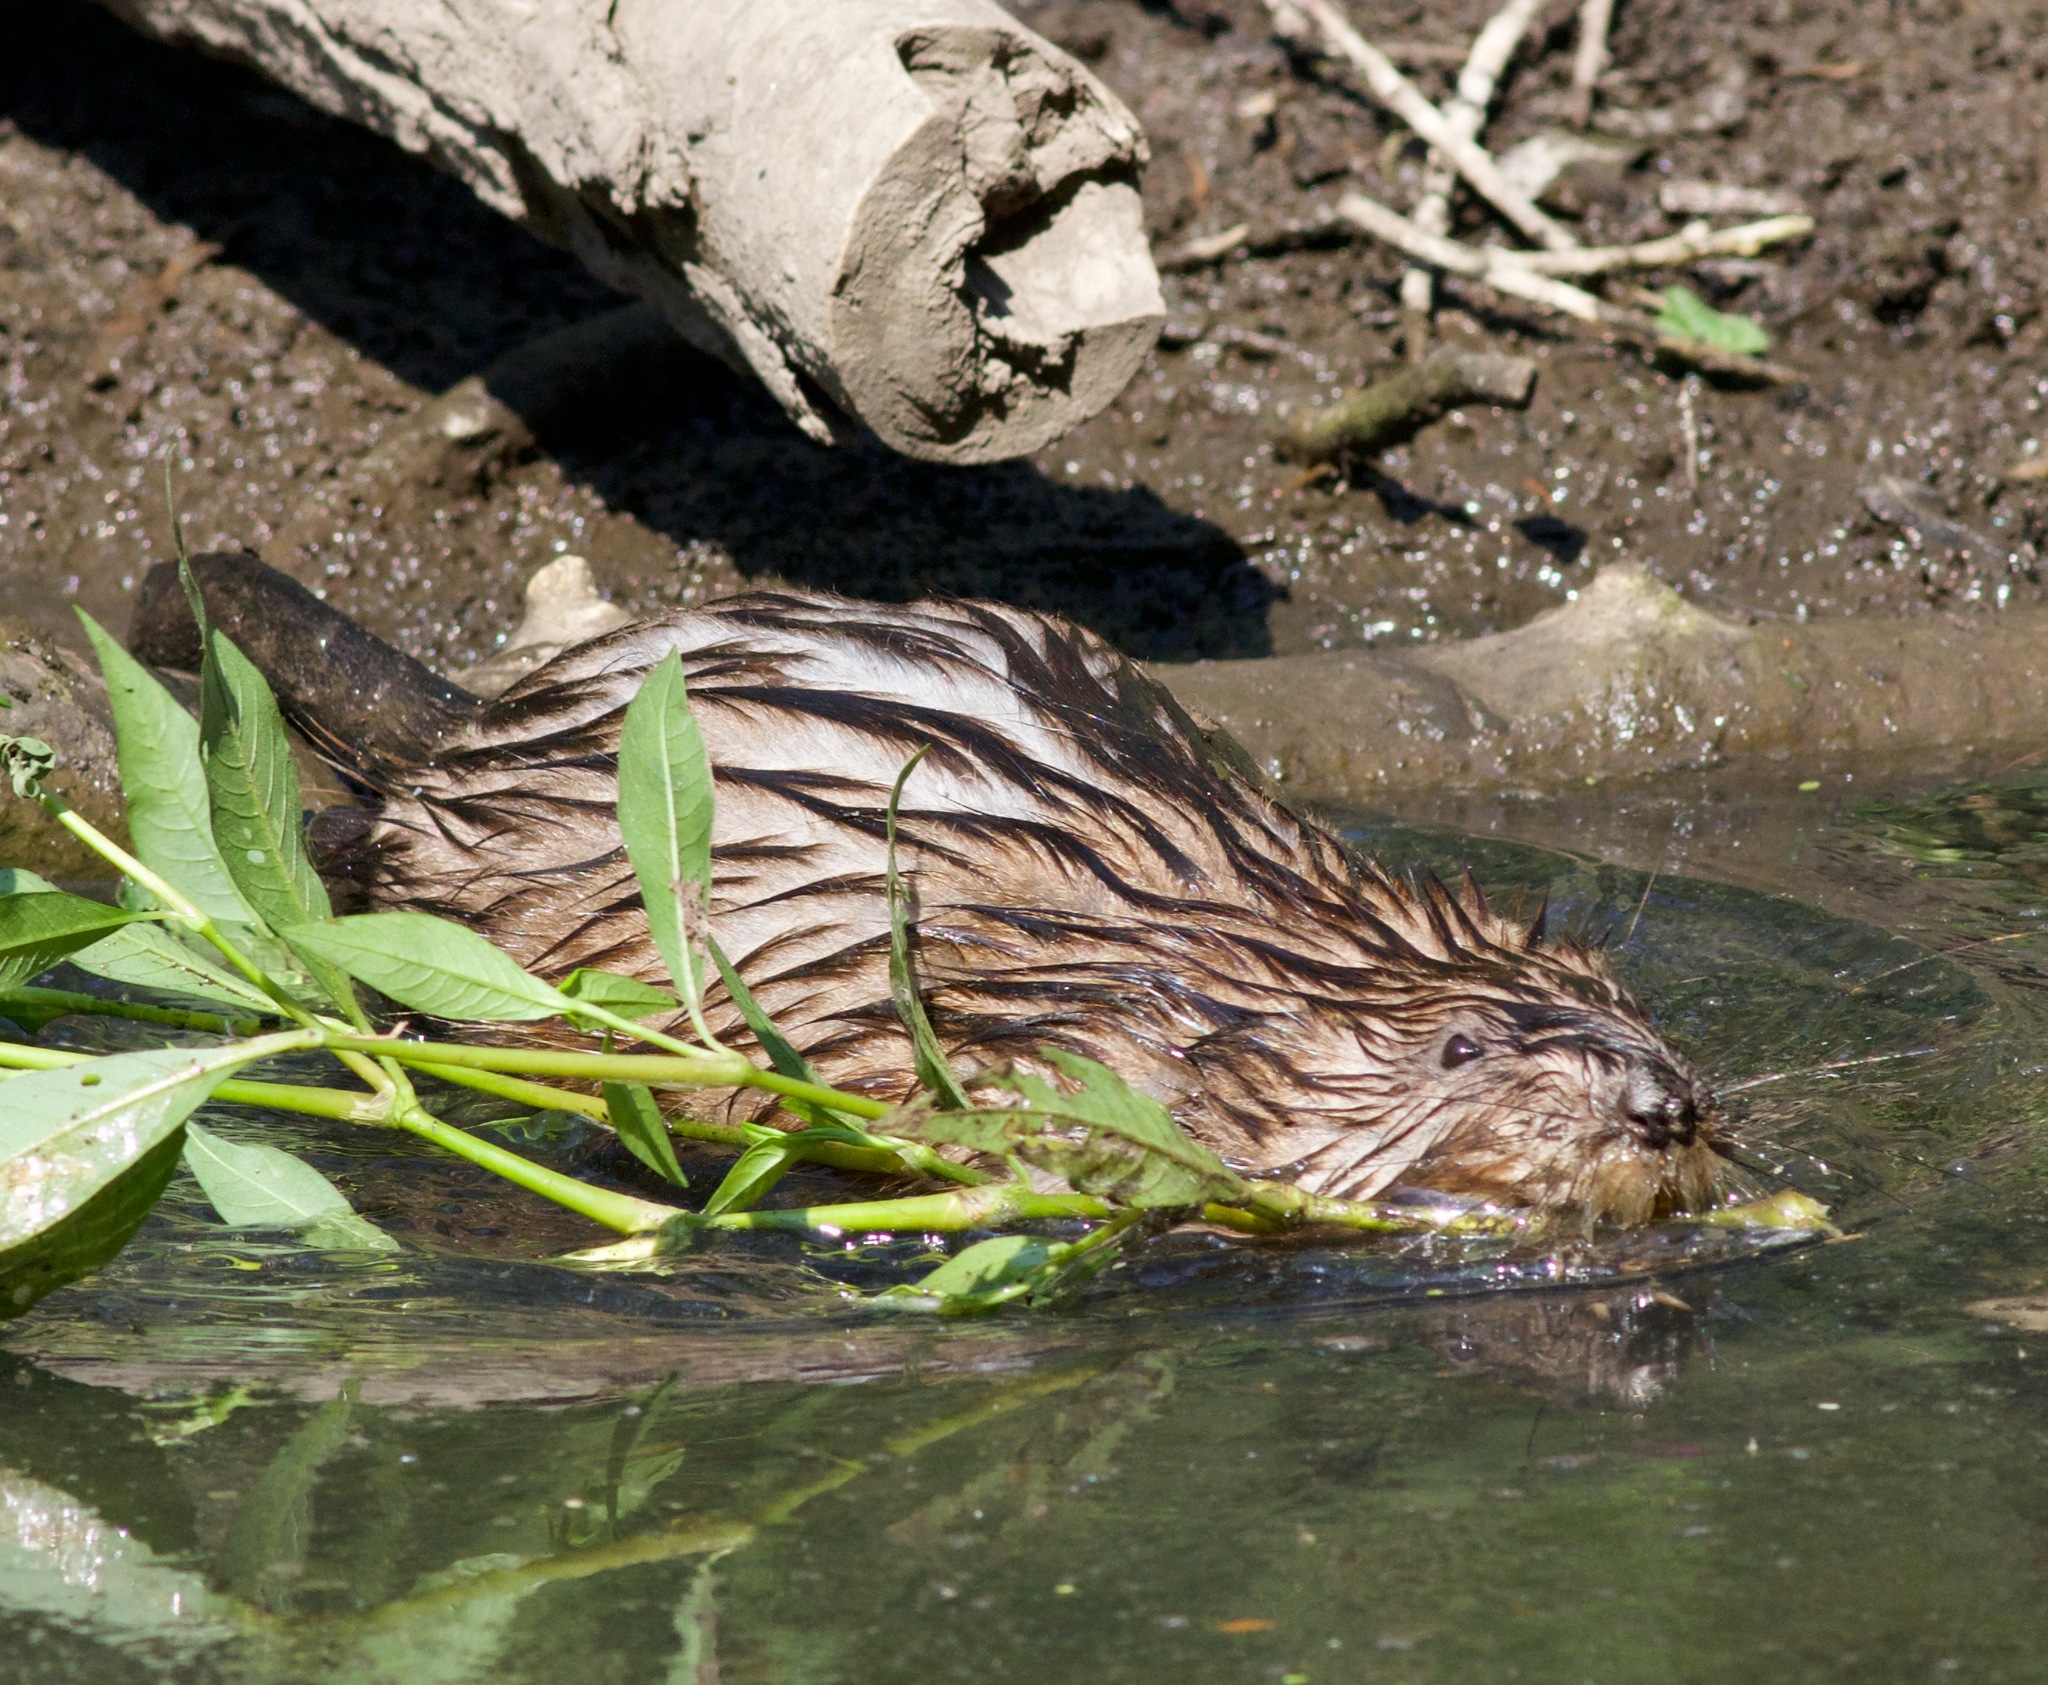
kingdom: Animalia
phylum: Chordata
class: Mammalia
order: Rodentia
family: Cricetidae
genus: Ondatra
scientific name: Ondatra zibethicus
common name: Muskrat
